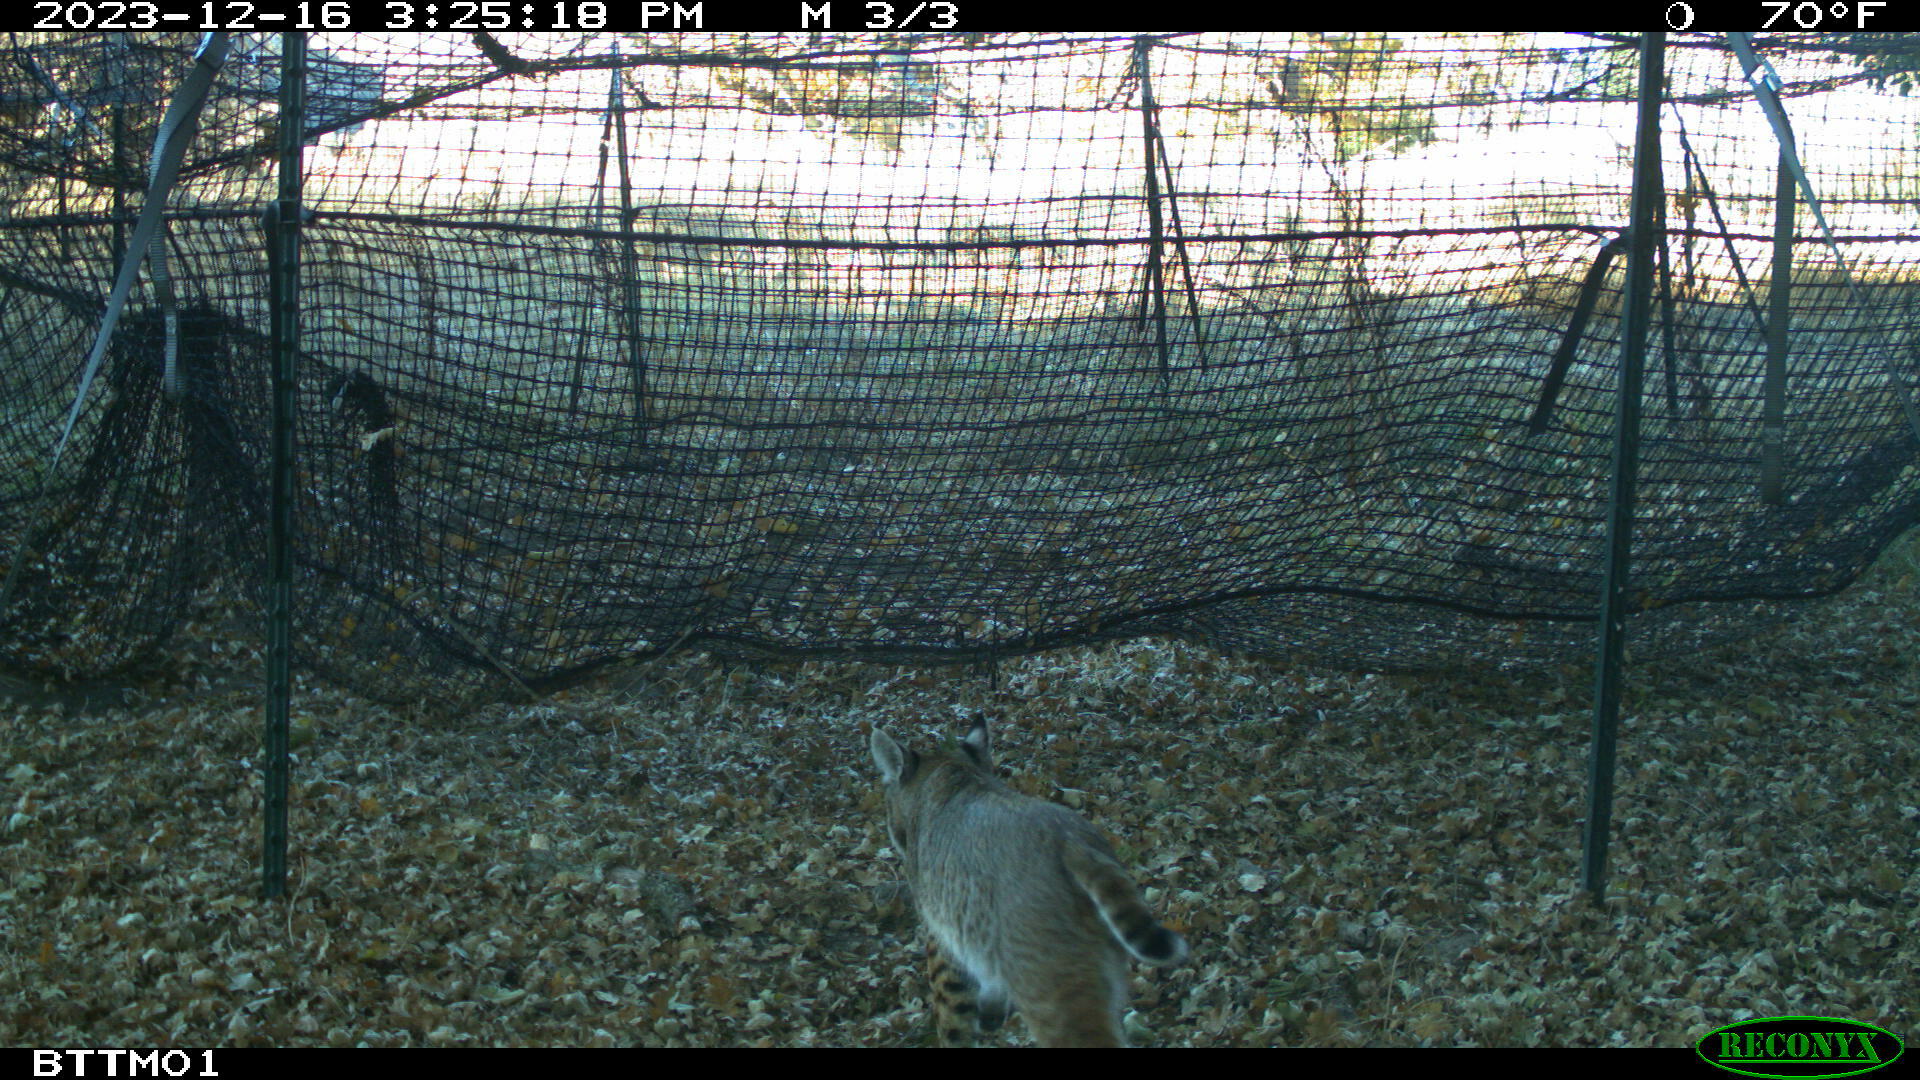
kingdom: Animalia
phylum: Chordata
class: Mammalia
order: Carnivora
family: Felidae
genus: Lynx
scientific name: Lynx rufus
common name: Bobcat
